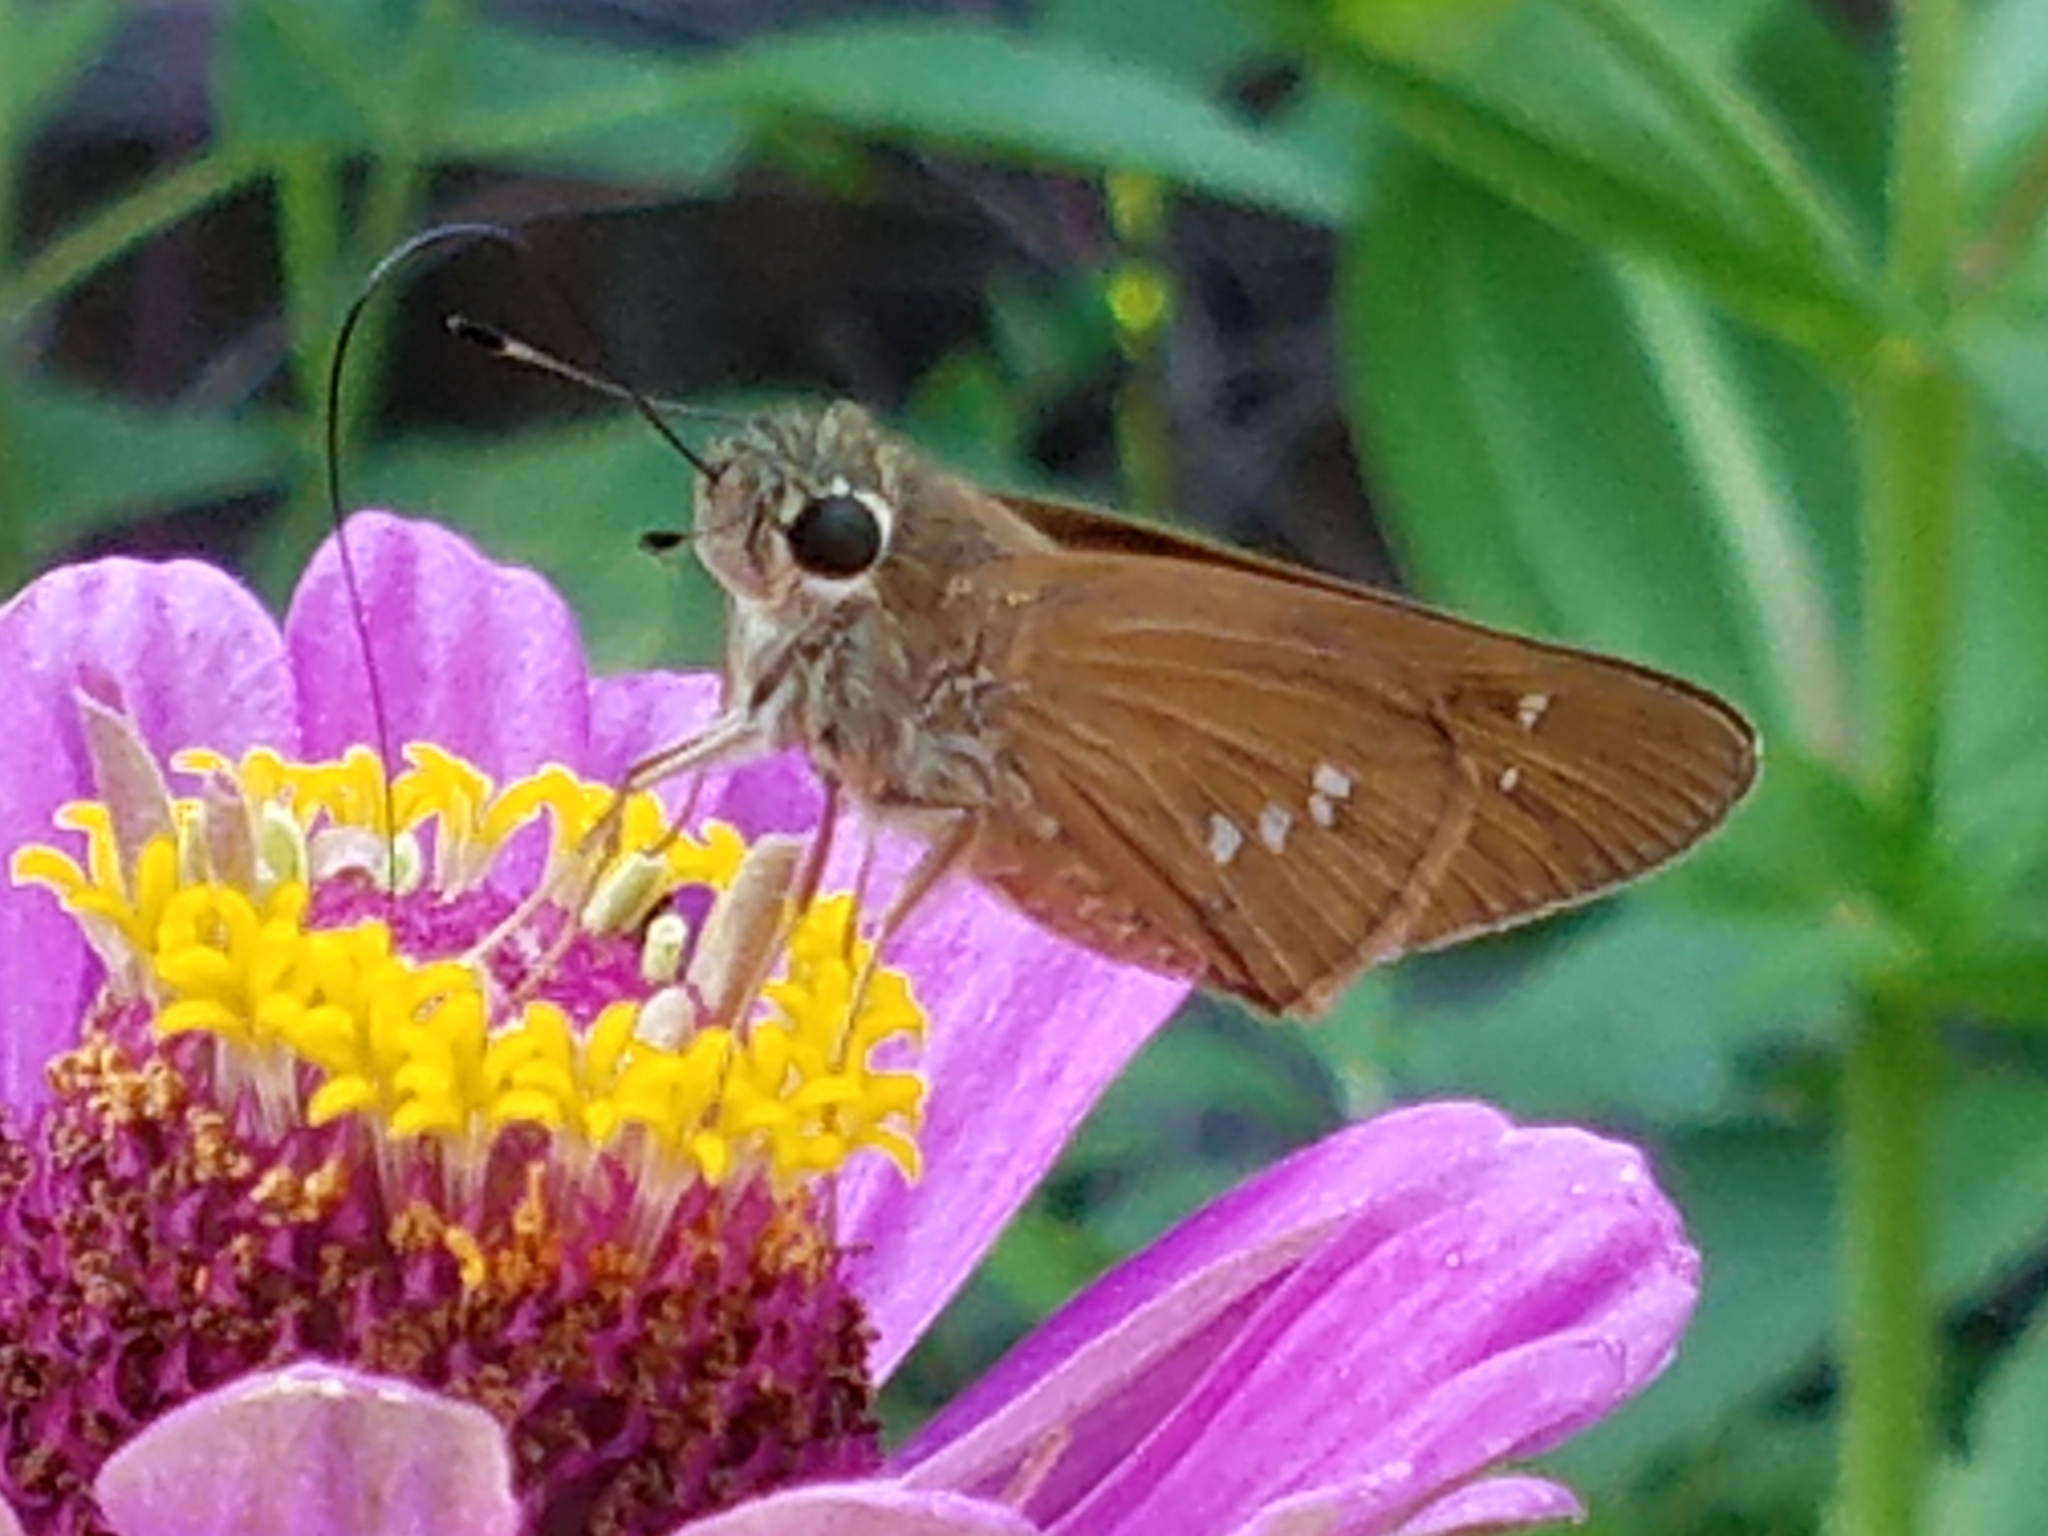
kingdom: Animalia
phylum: Arthropoda
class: Insecta
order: Lepidoptera
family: Hesperiidae
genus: Calpodes
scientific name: Calpodes ethlius
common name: Brazilian skipper
